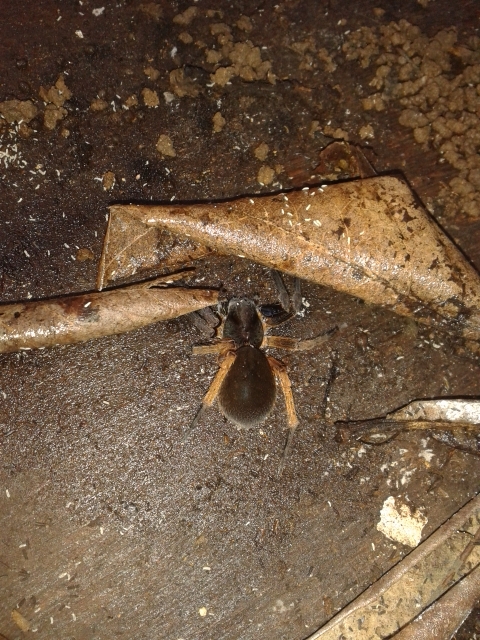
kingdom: Animalia
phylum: Arthropoda
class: Arachnida
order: Araneae
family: Ctenidae
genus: Ctenus
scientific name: Ctenus medius
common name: Wandering spiders
